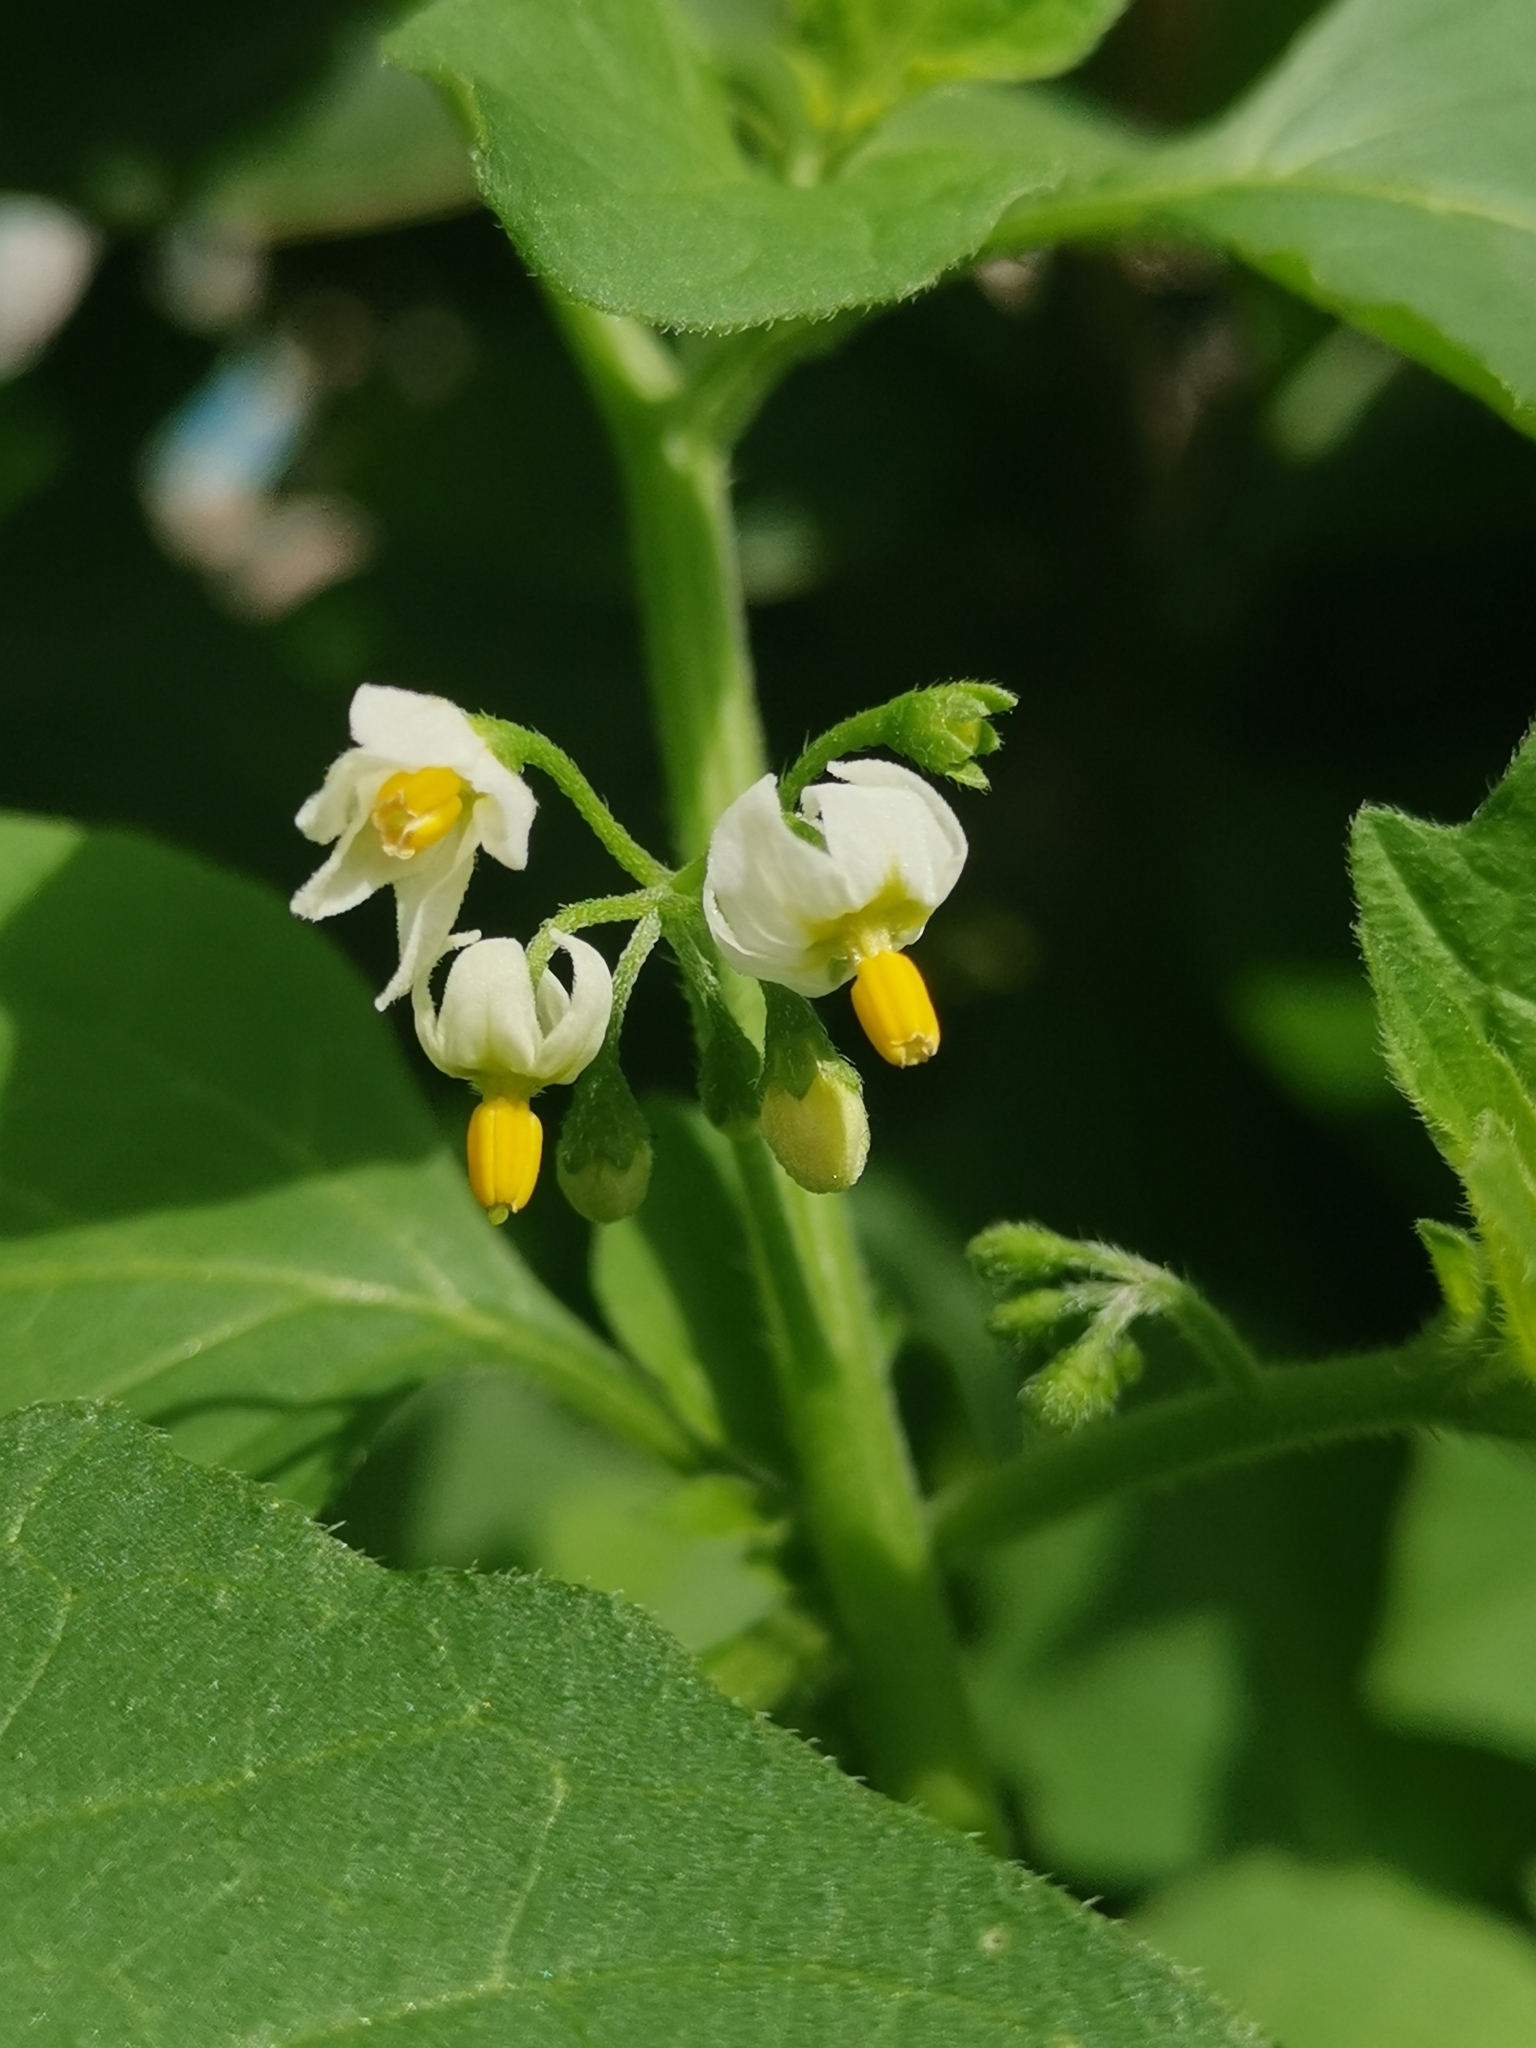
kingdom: Plantae
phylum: Tracheophyta
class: Magnoliopsida
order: Solanales
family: Solanaceae
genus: Solanum
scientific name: Solanum nigrum
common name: Black nightshade
